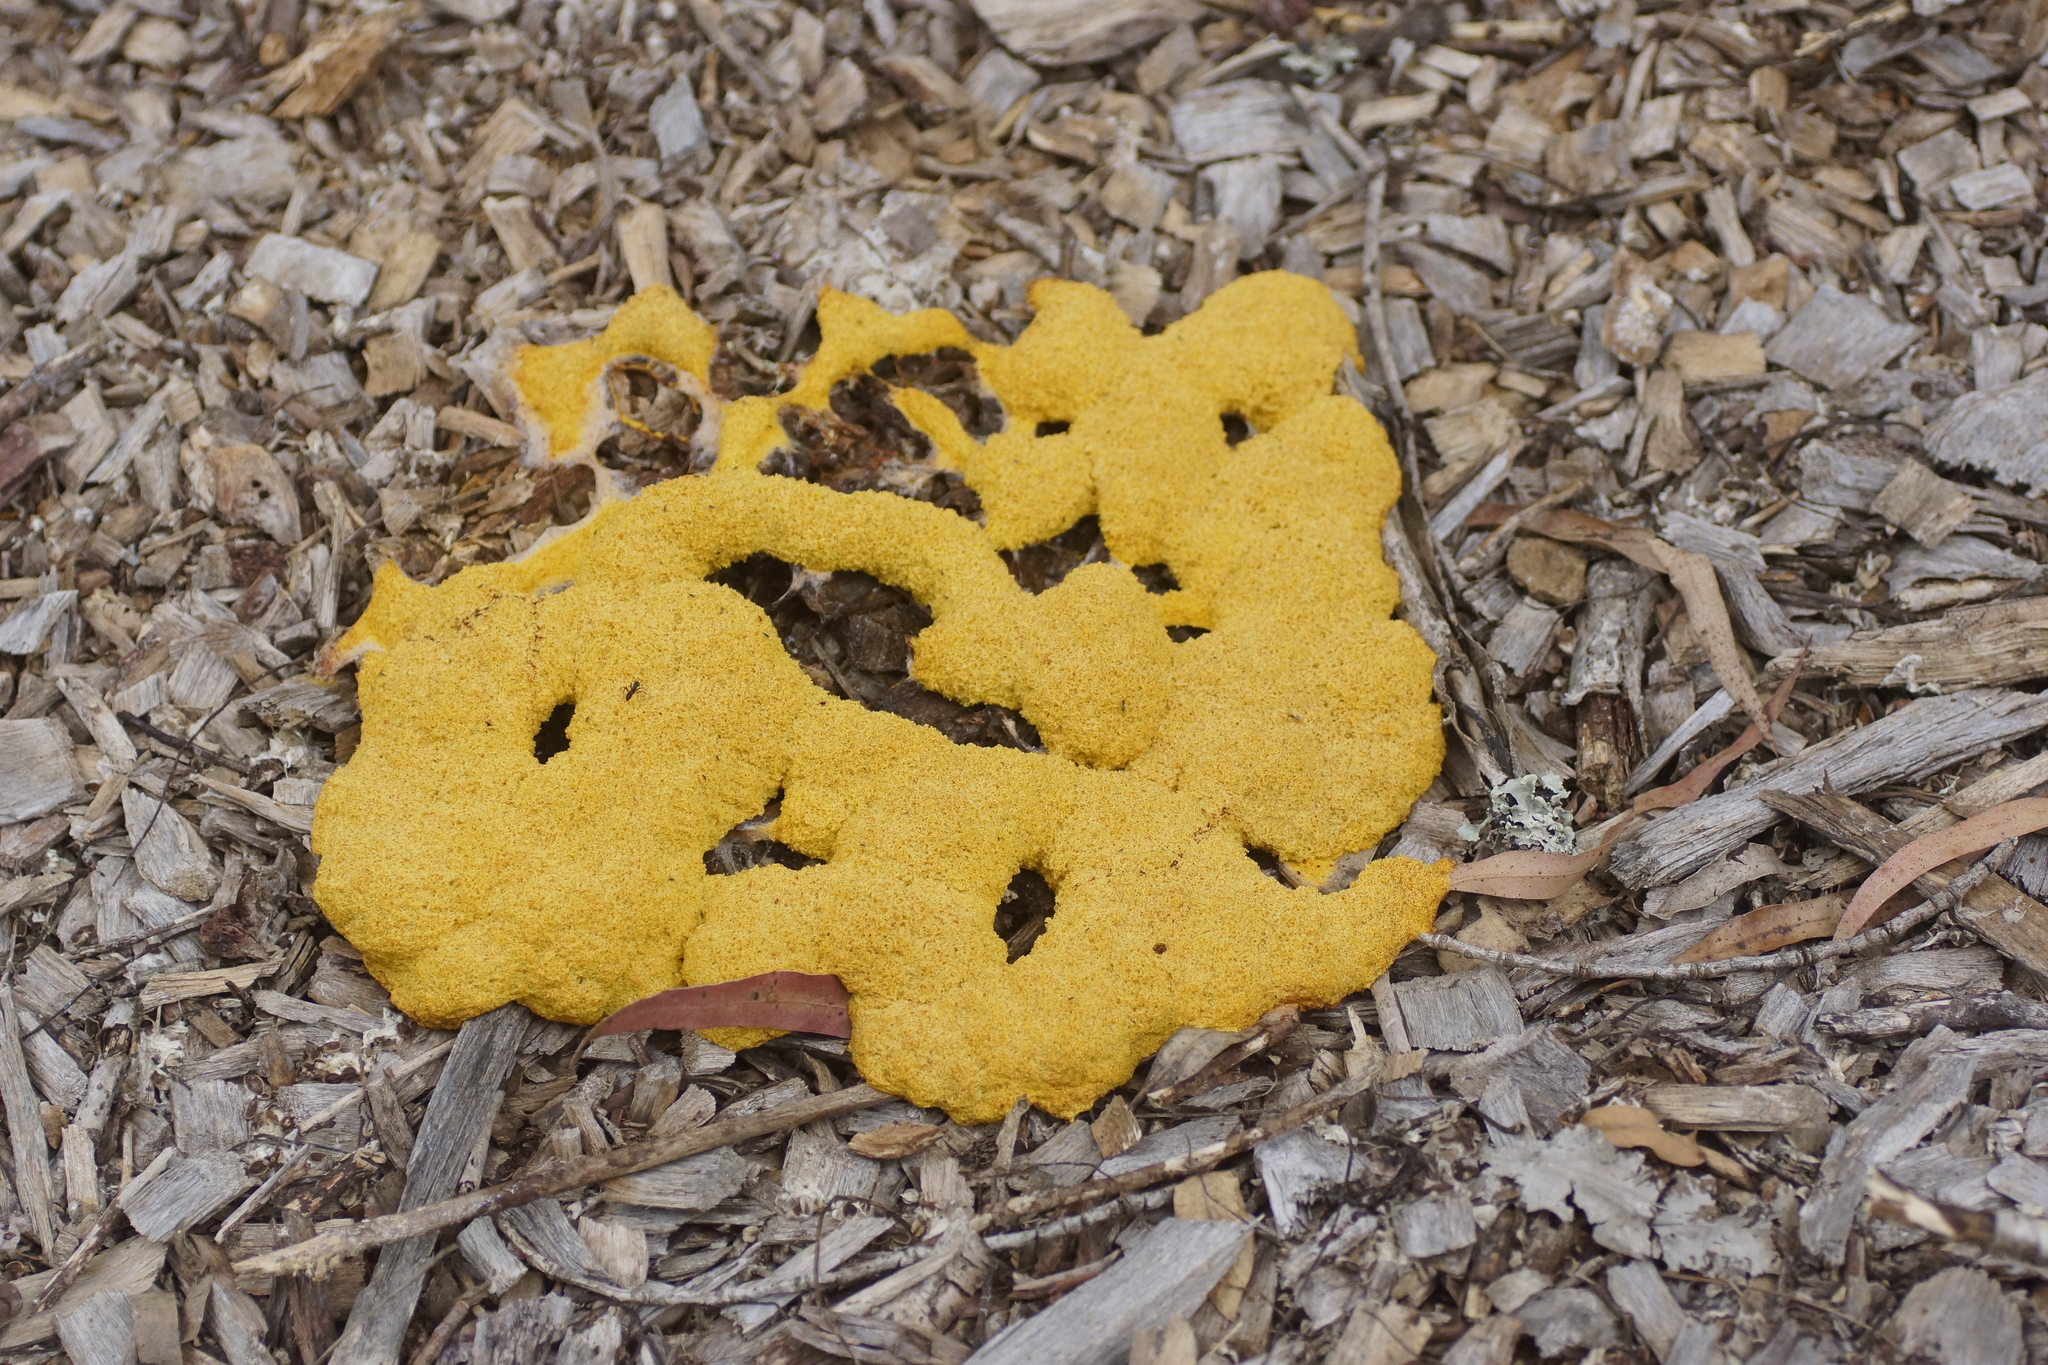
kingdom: Protozoa
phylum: Mycetozoa
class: Myxomycetes
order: Physarales
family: Physaraceae
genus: Fuligo
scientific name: Fuligo septica
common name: Dog vomit slime mold
